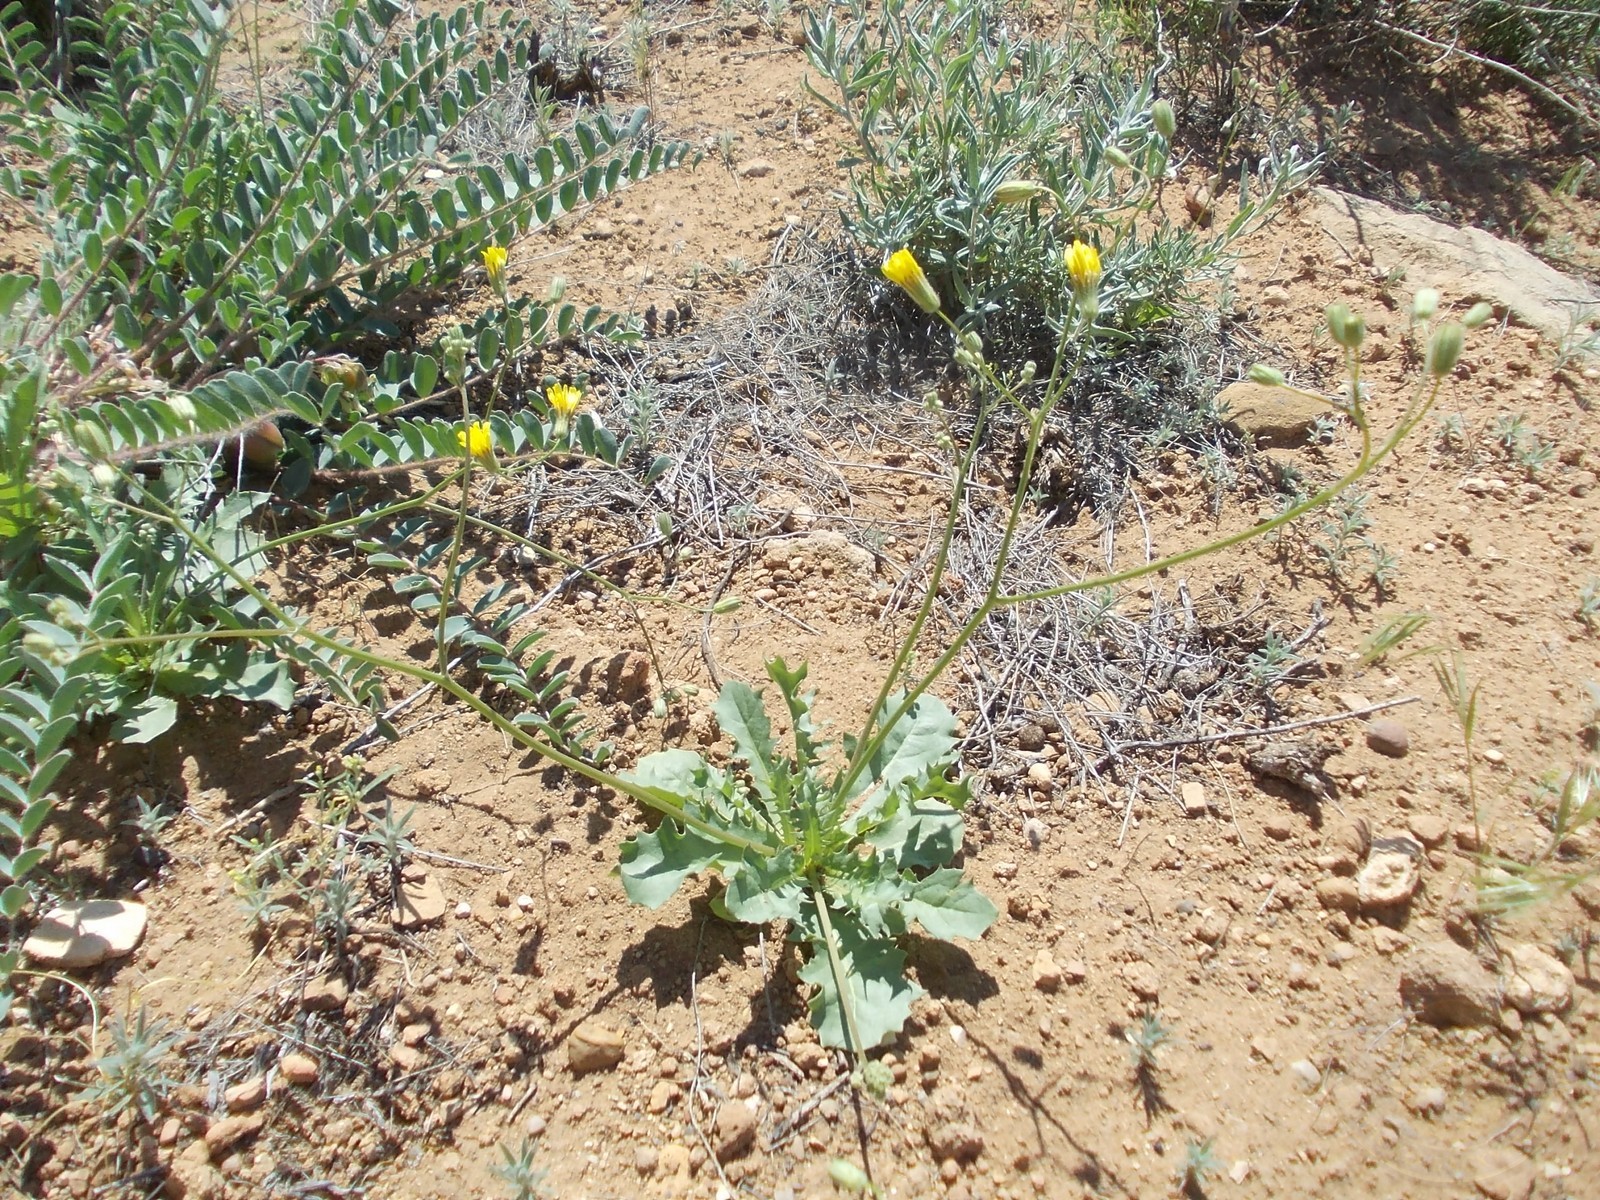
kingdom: Plantae
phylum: Tracheophyta
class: Magnoliopsida
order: Asterales
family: Asteraceae
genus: Crepis
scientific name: Crepis sancta
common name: Hawk's-beard
